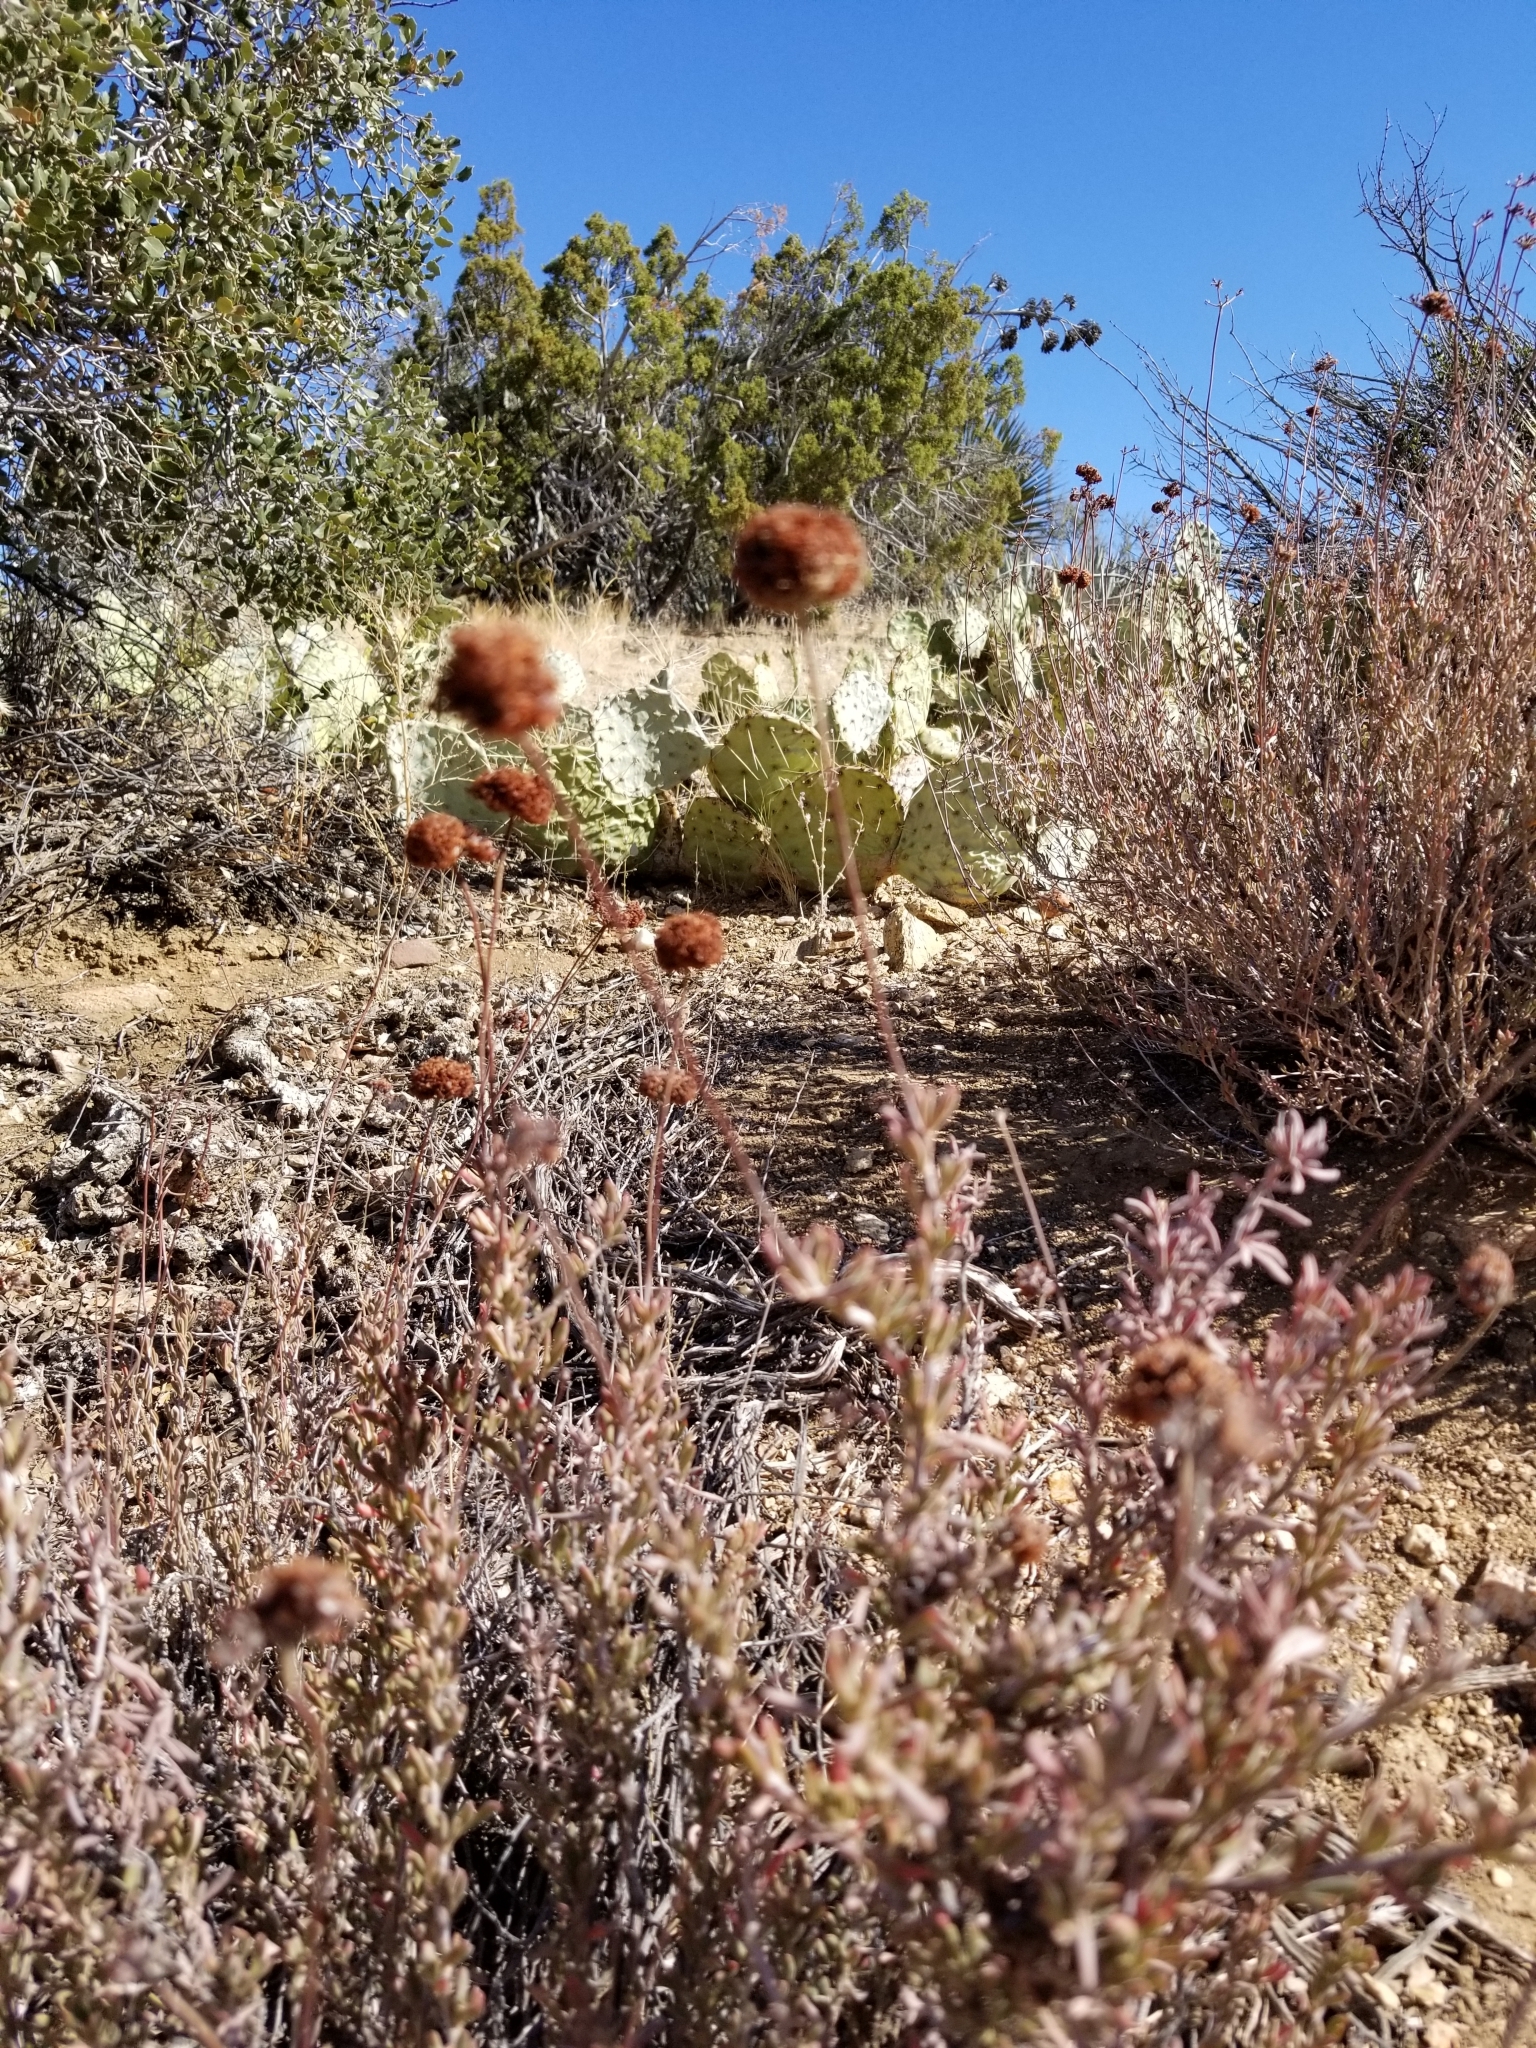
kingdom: Plantae
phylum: Tracheophyta
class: Magnoliopsida
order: Caryophyllales
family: Polygonaceae
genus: Eriogonum
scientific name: Eriogonum fasciculatum
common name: California wild buckwheat
